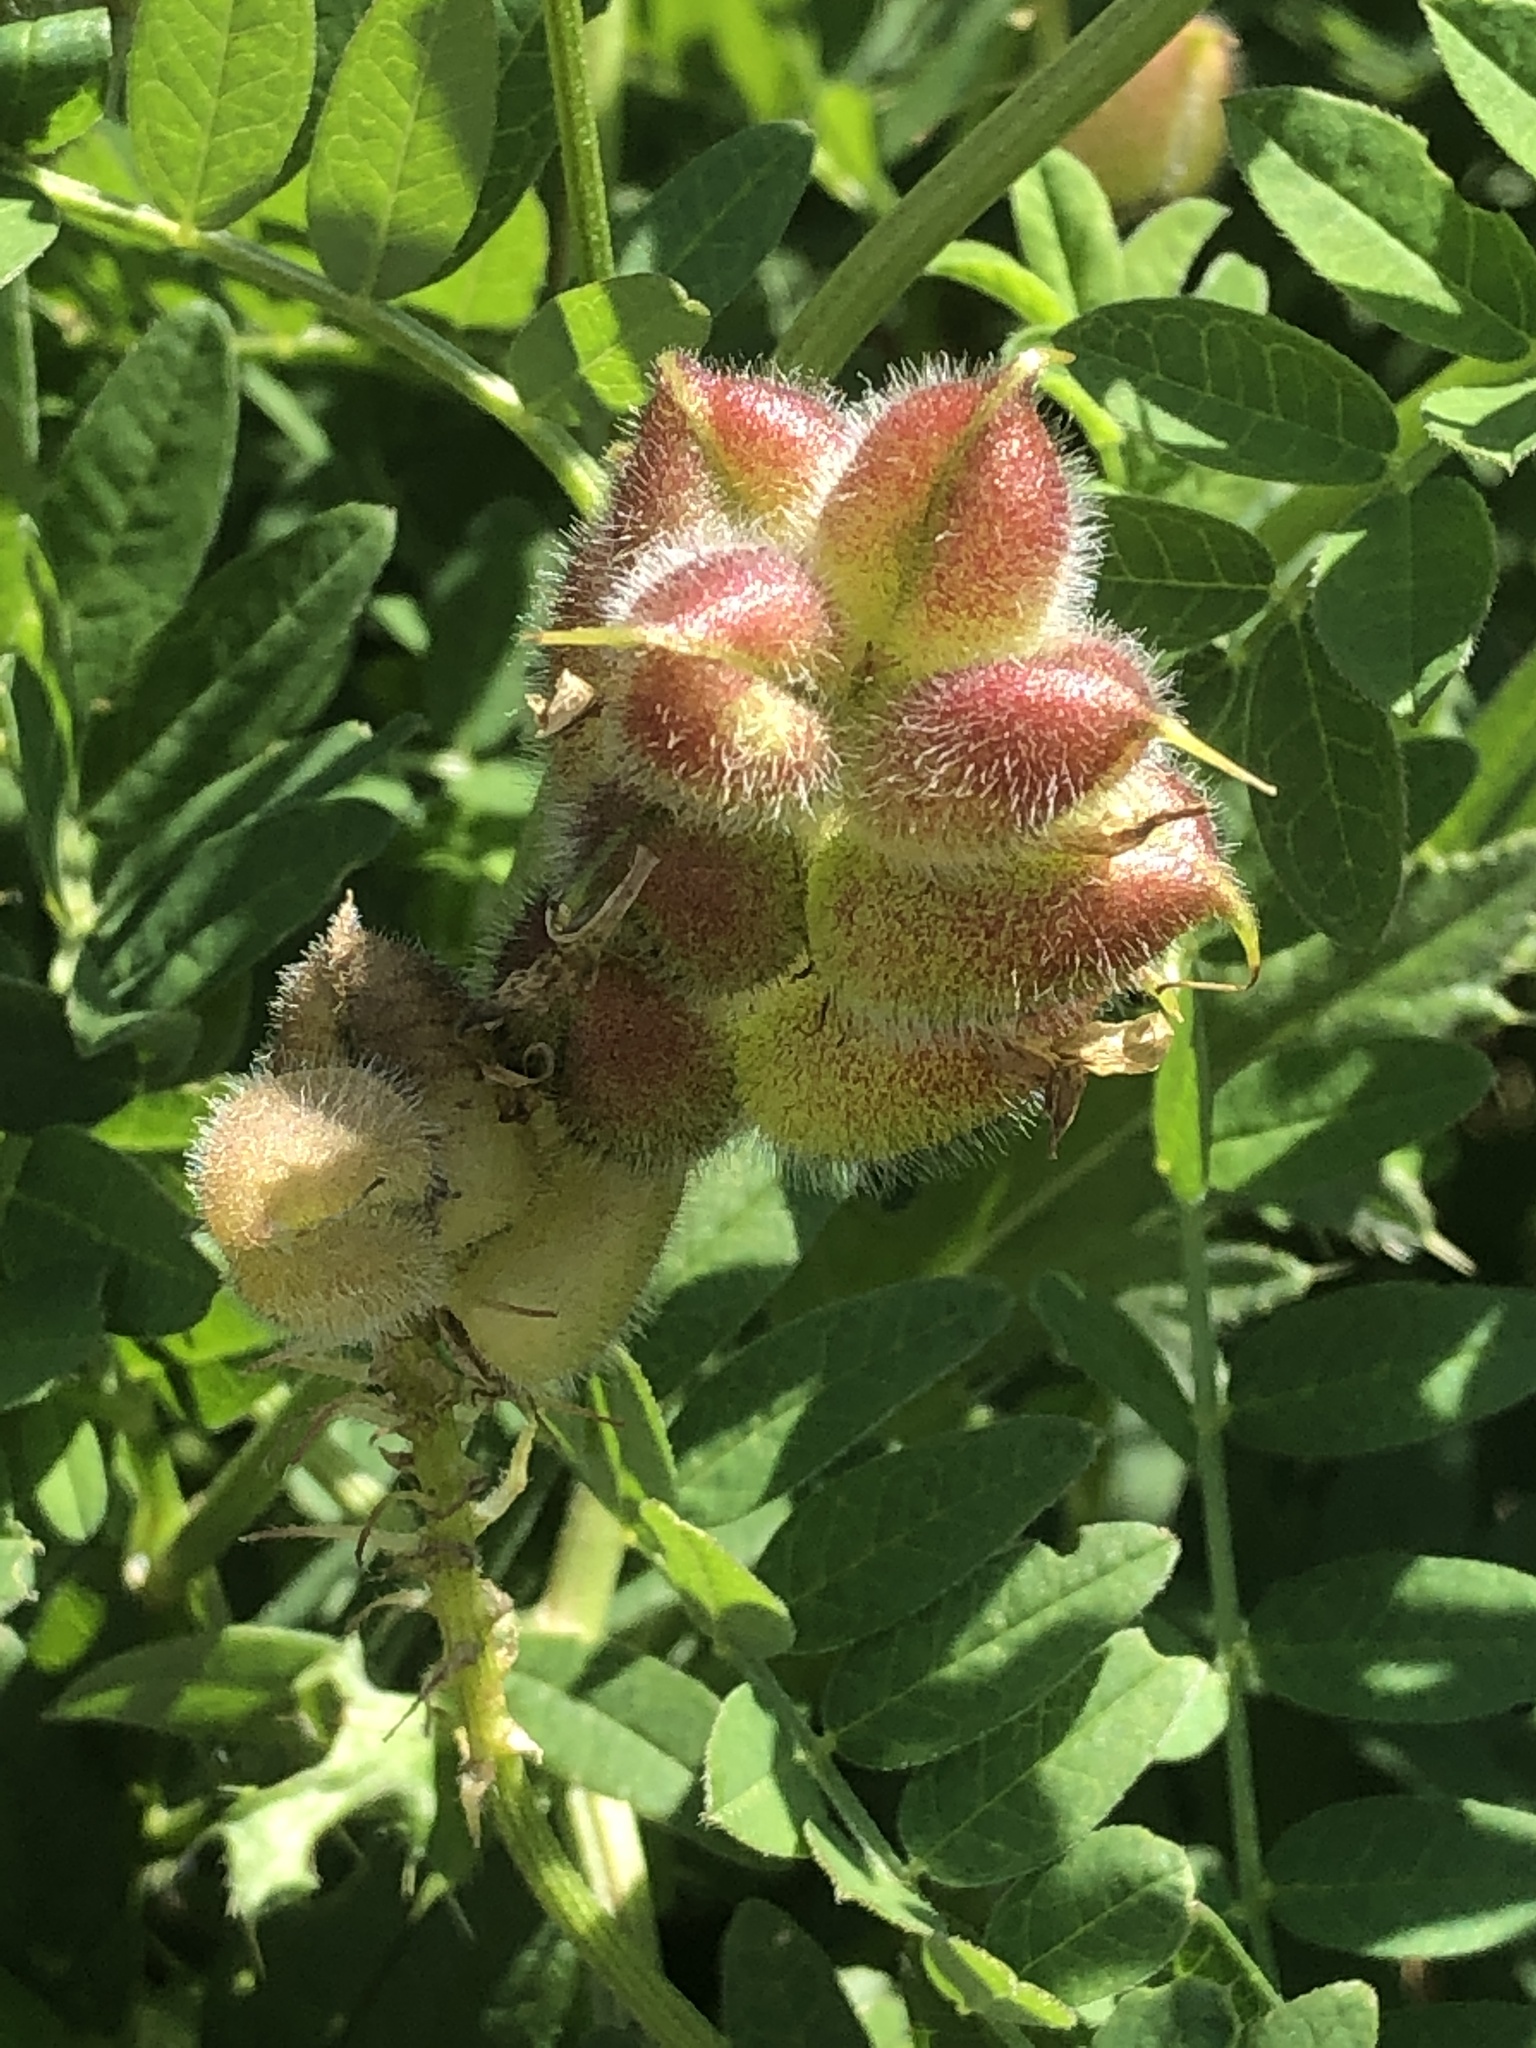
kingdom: Plantae
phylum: Tracheophyta
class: Magnoliopsida
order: Fabales
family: Fabaceae
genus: Astragalus
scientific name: Astragalus cicer
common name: Chick-pea milk-vetch
